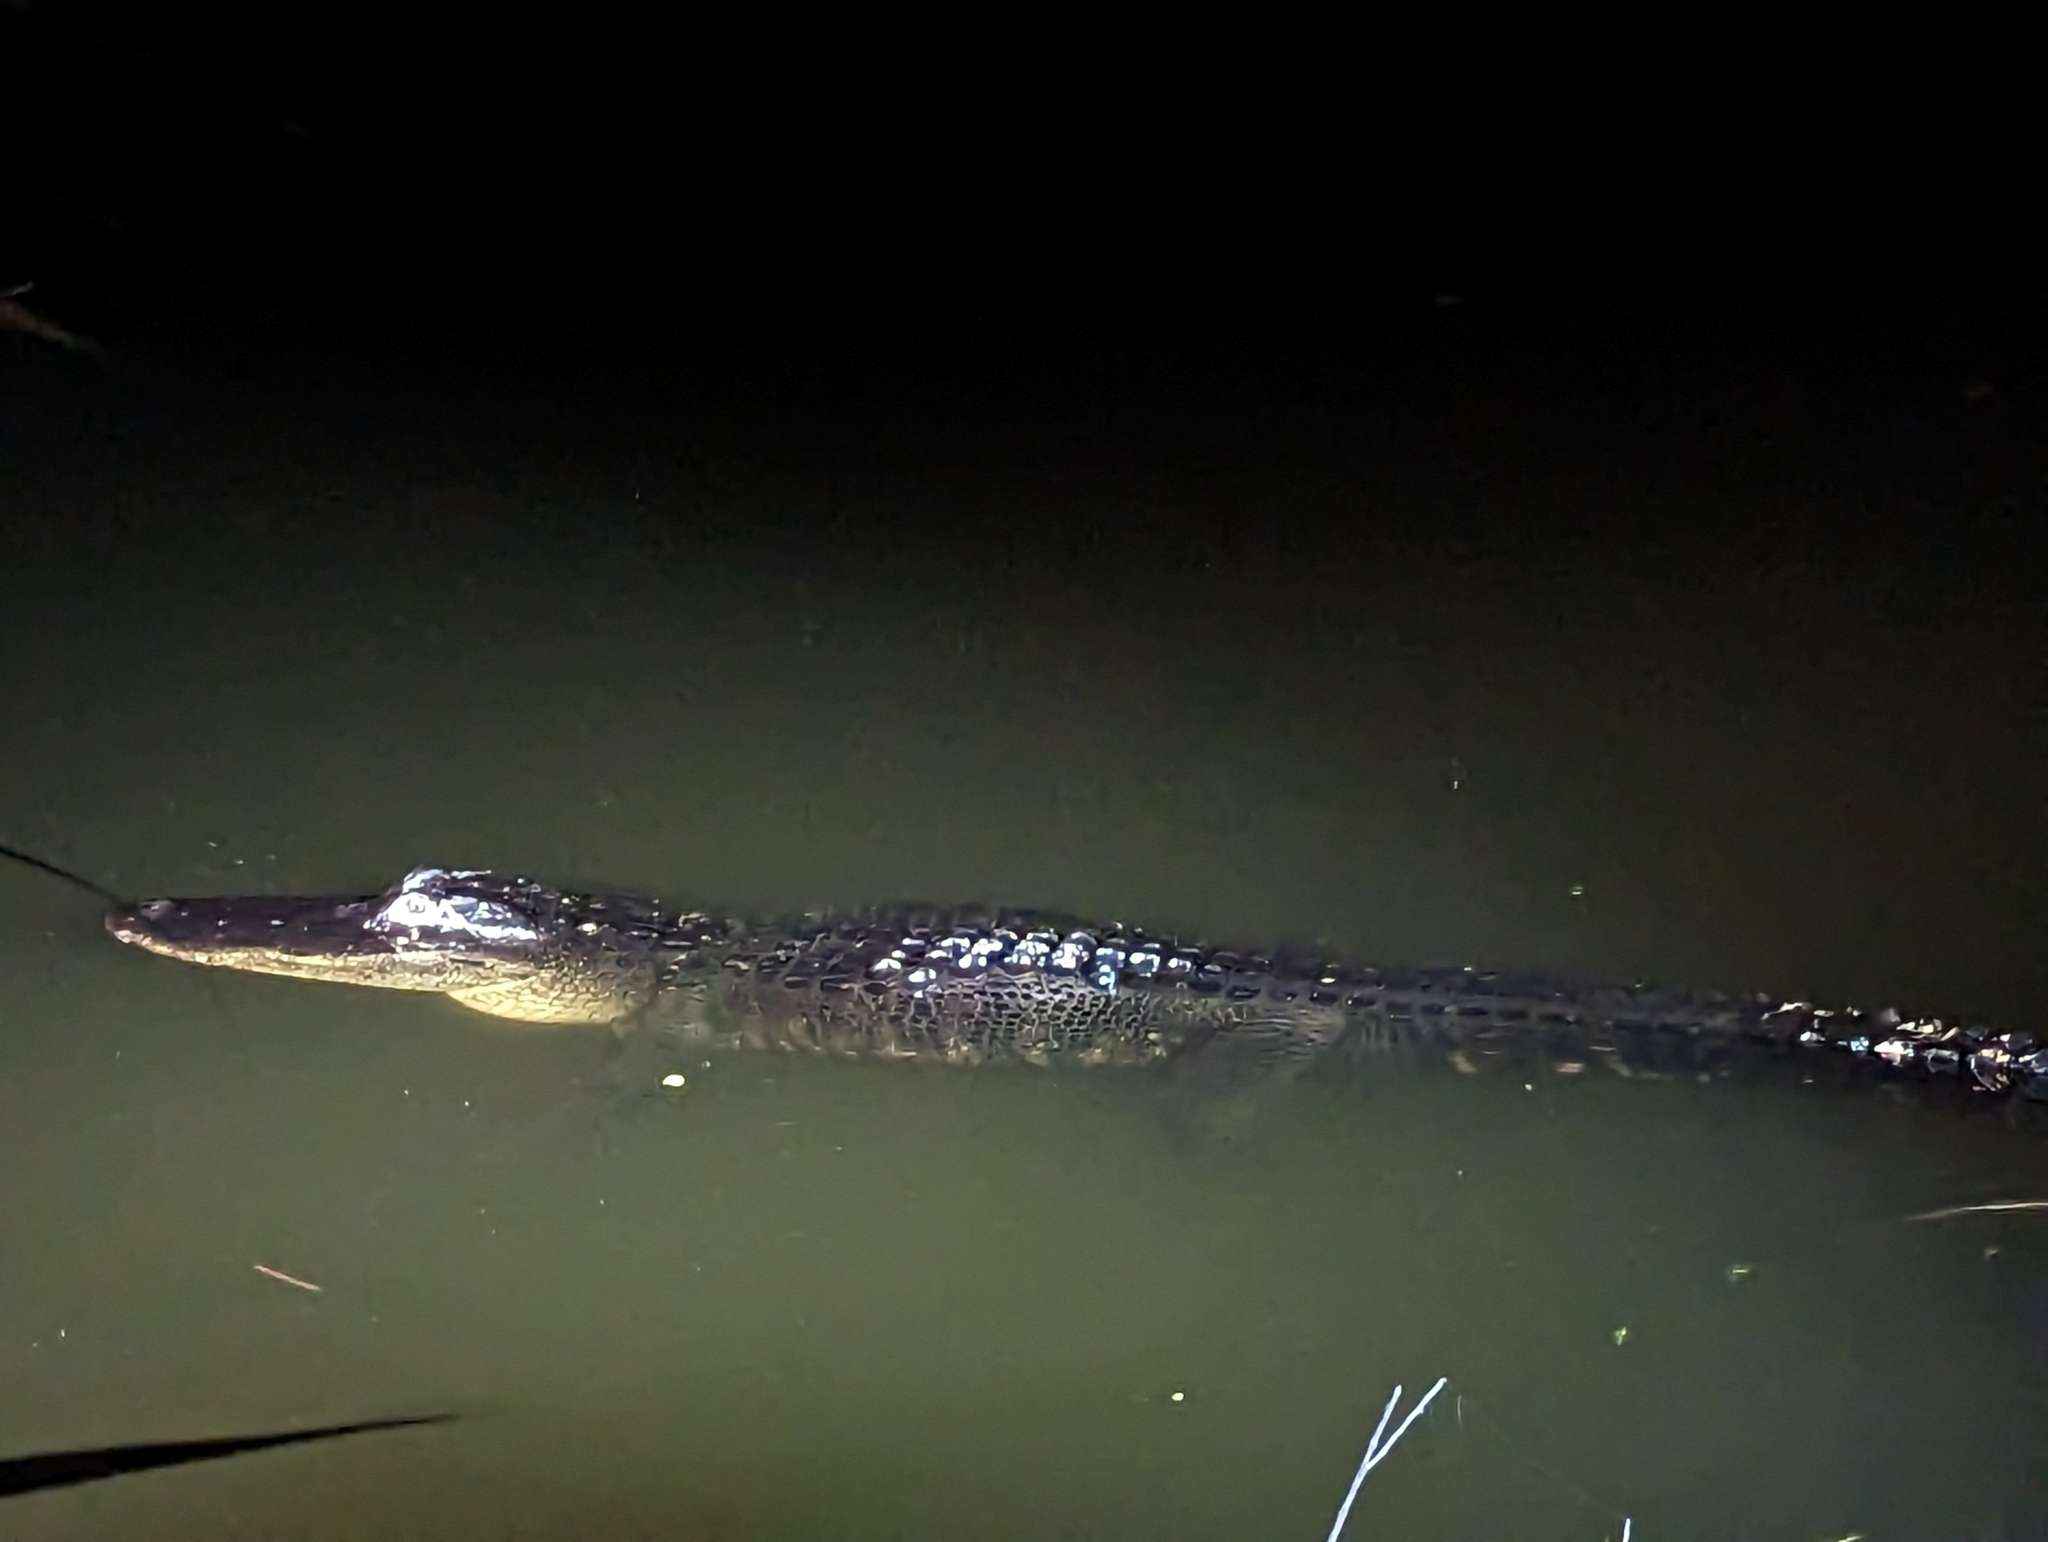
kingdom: Animalia
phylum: Chordata
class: Crocodylia
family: Alligatoridae
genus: Alligator
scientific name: Alligator mississippiensis
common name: American alligator
